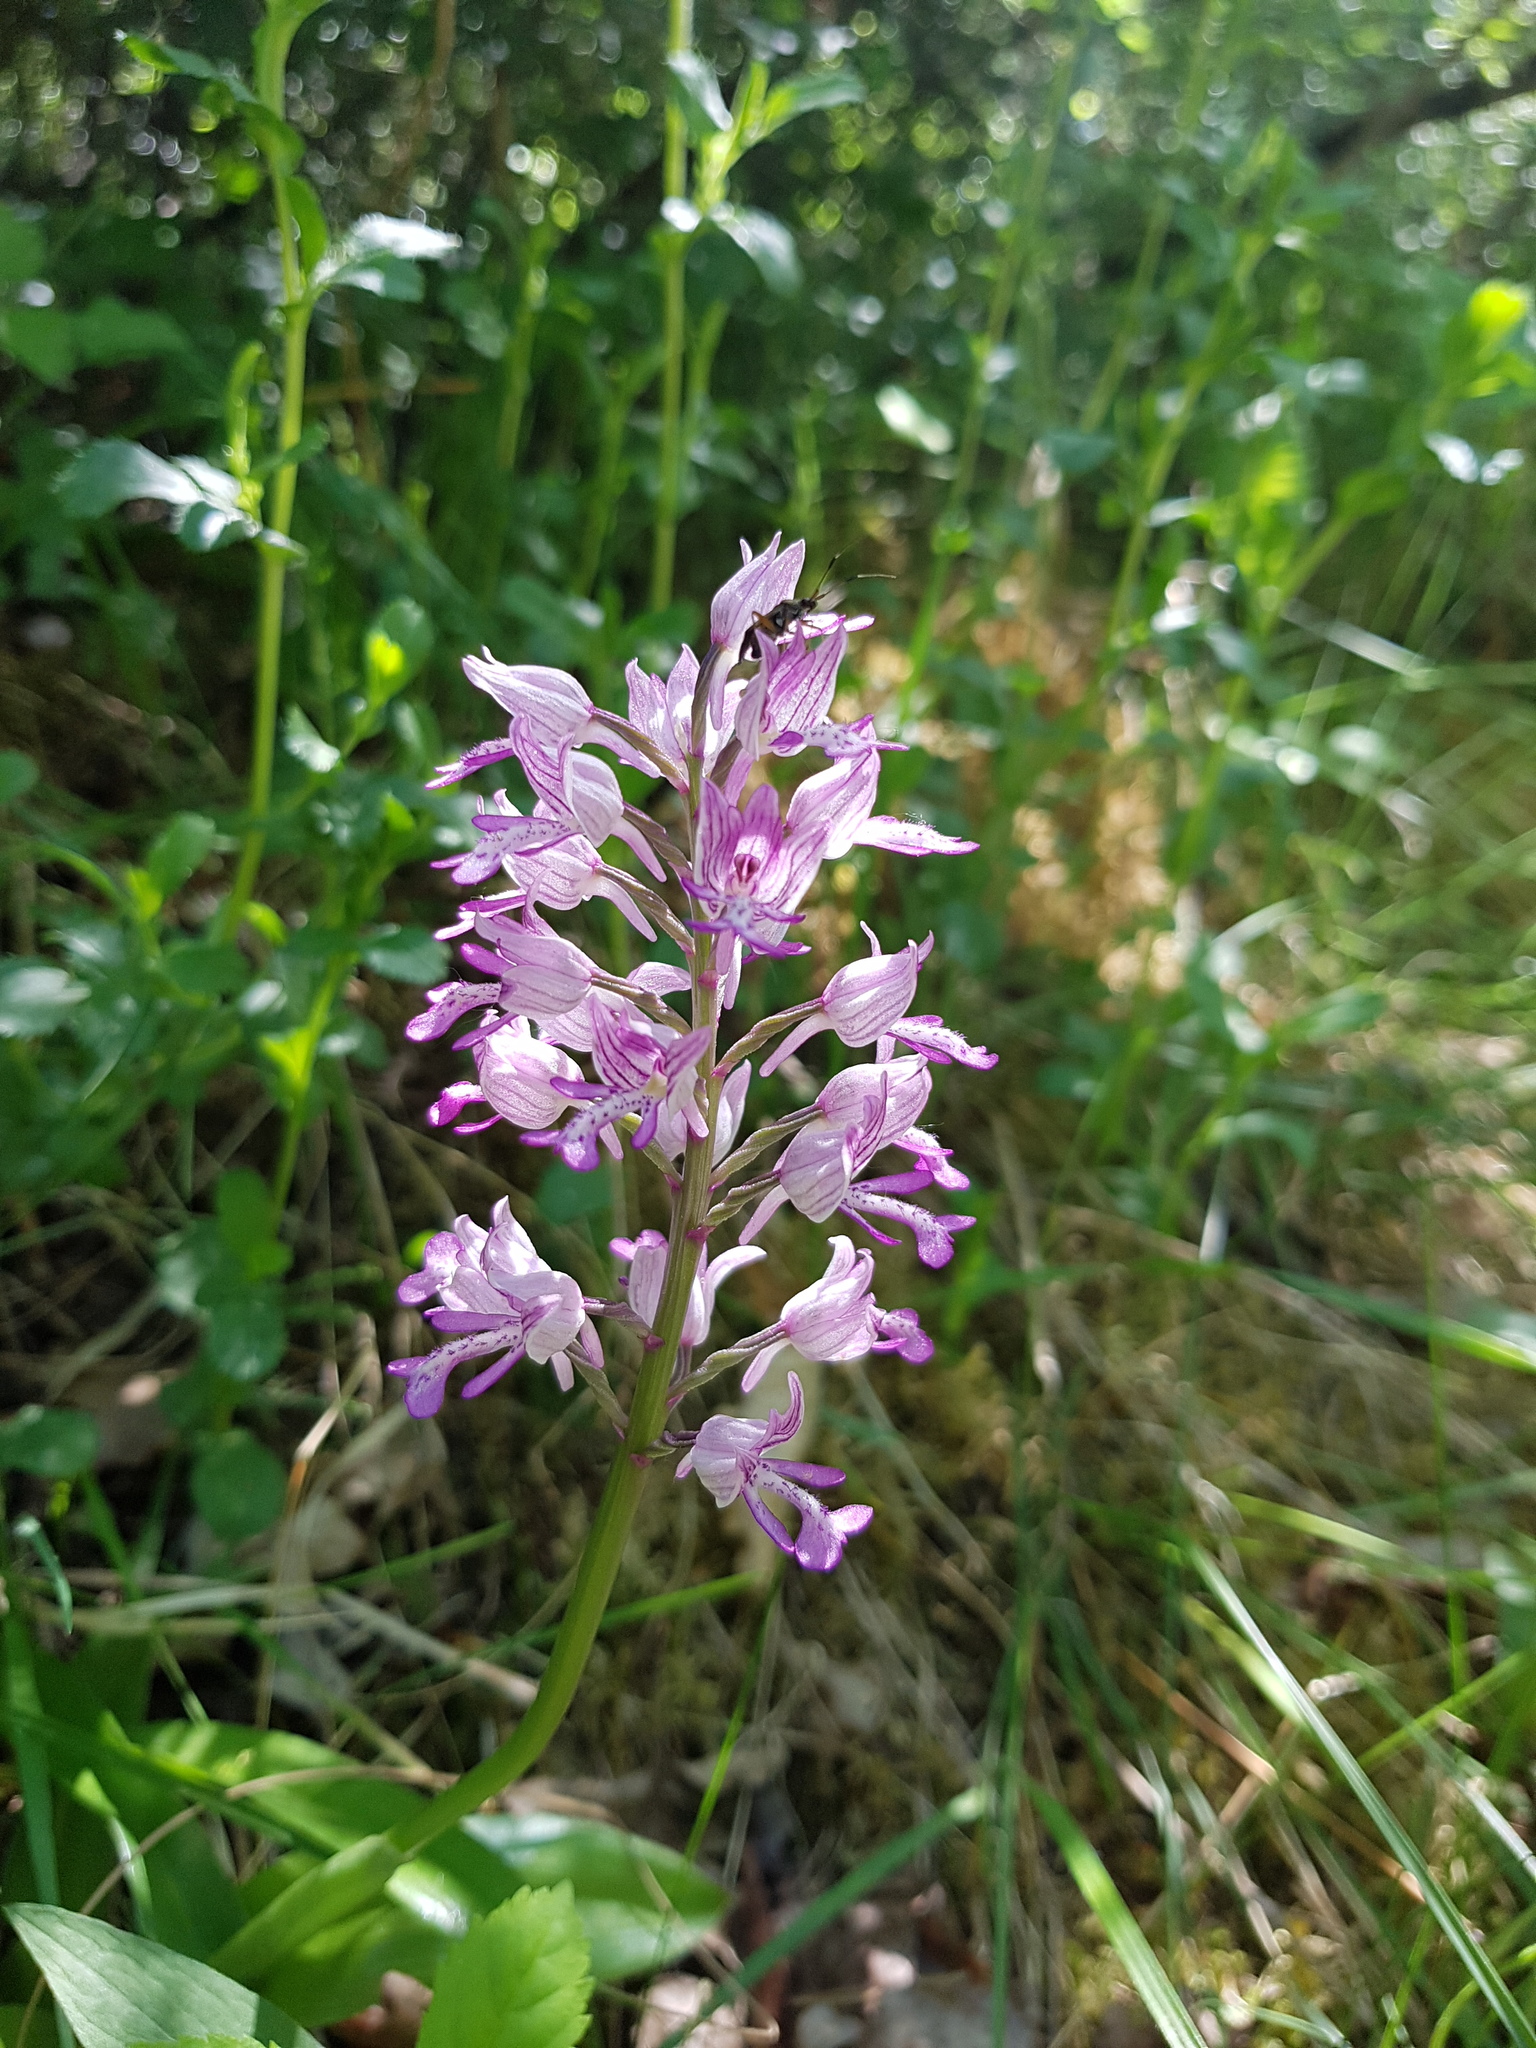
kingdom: Plantae
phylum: Tracheophyta
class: Liliopsida
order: Asparagales
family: Orchidaceae
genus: Orchis
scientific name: Orchis militaris
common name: Military orchid
